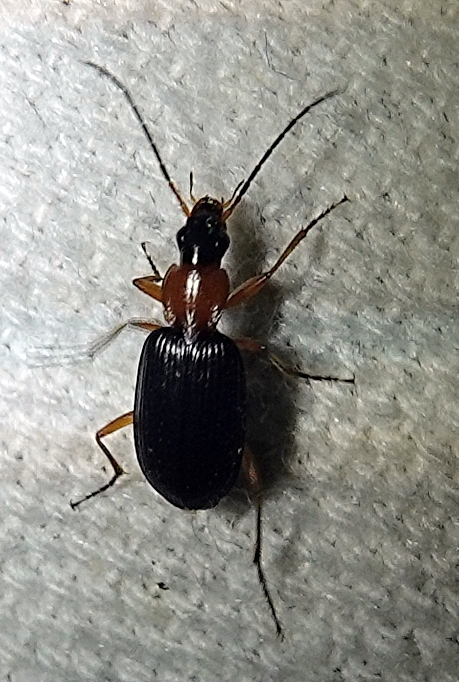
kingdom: Animalia
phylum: Arthropoda
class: Insecta
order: Coleoptera
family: Carabidae
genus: Agonum
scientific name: Agonum decorum
